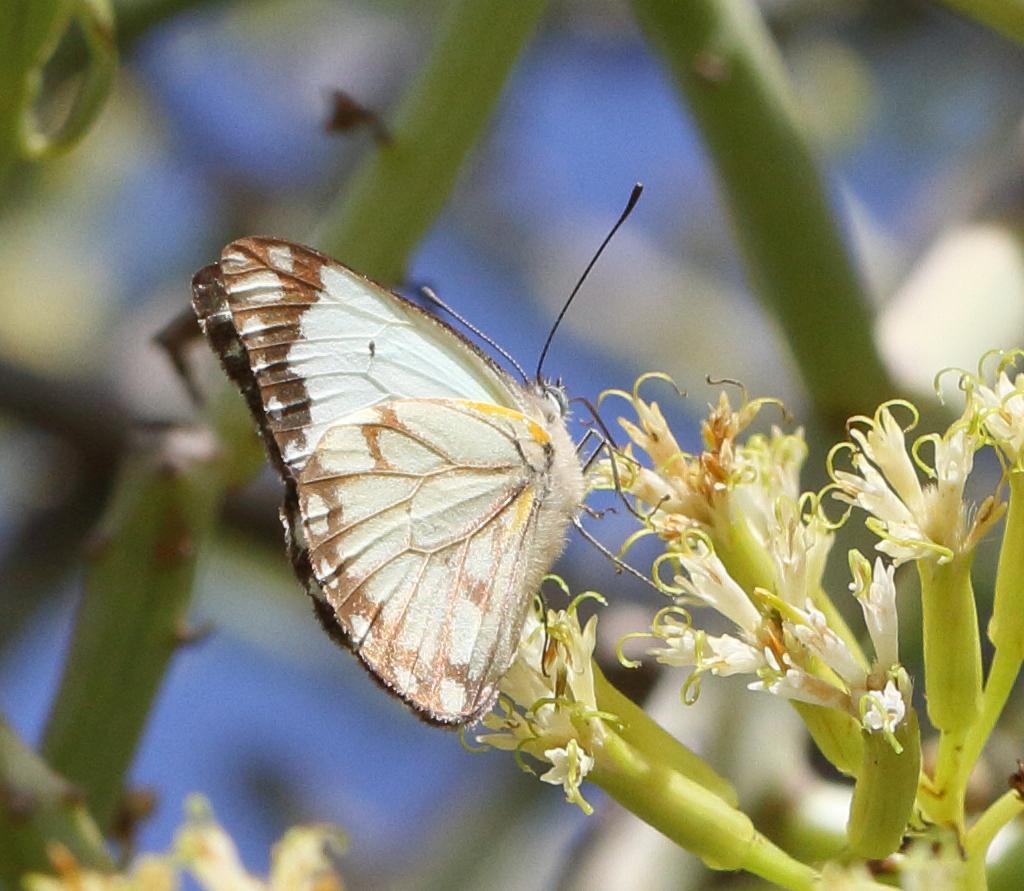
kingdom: Animalia
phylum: Arthropoda
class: Insecta
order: Lepidoptera
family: Pieridae
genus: Belenois
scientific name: Belenois creona
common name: African caper white
